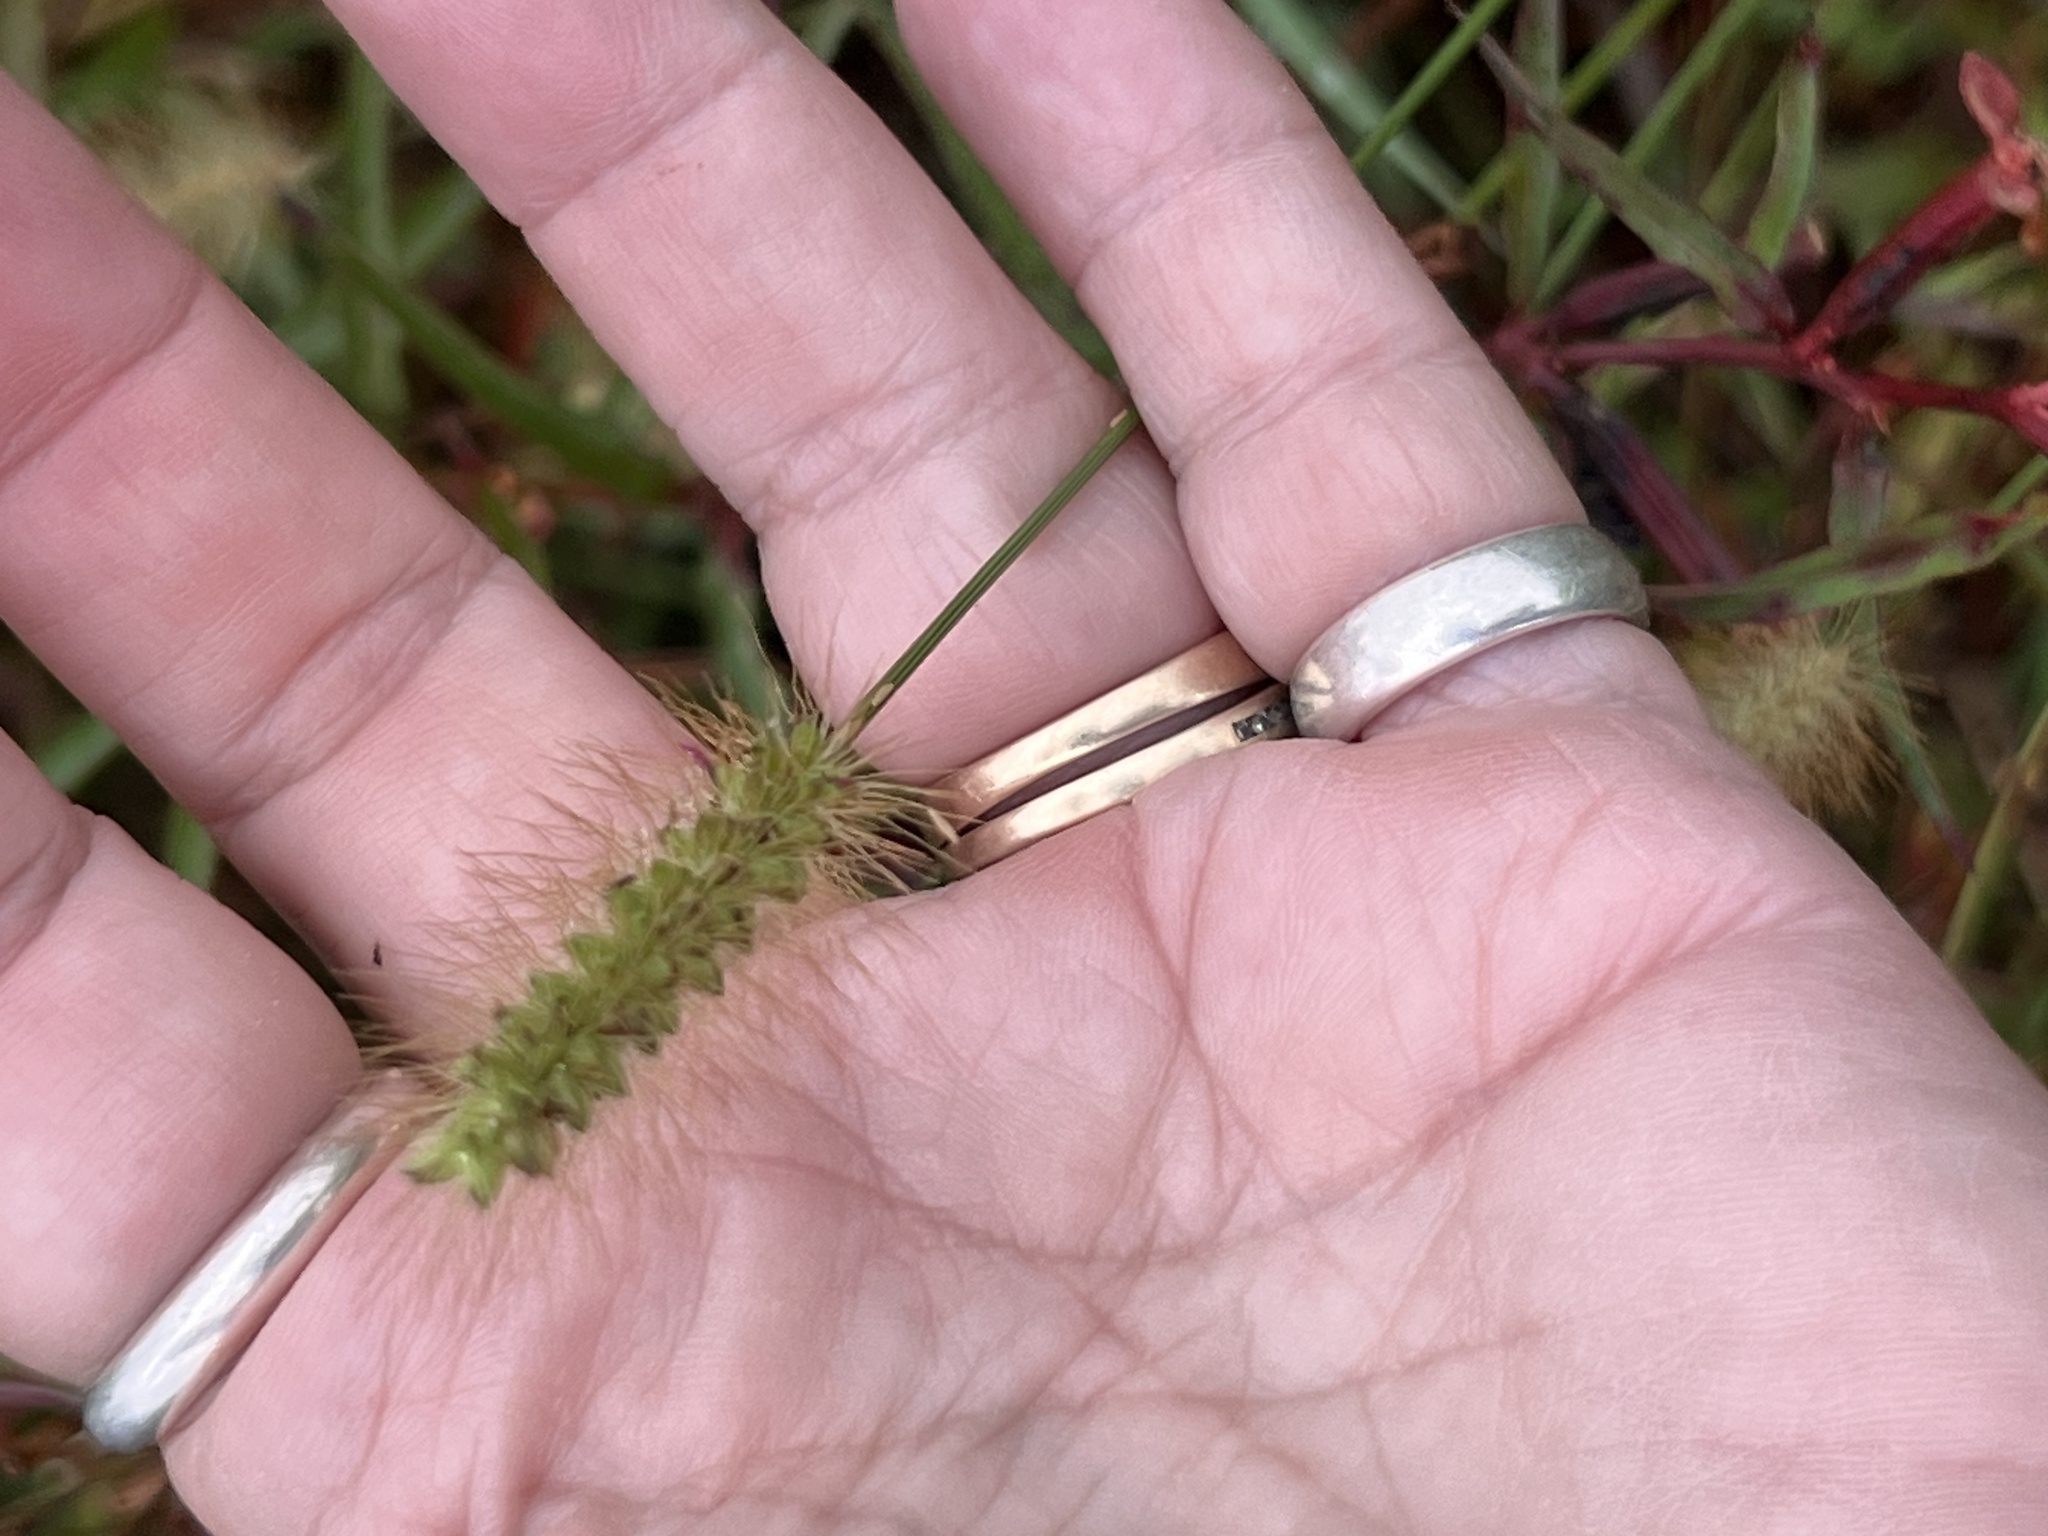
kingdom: Plantae
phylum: Tracheophyta
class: Liliopsida
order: Poales
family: Poaceae
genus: Setaria
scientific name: Setaria parviflora
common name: Knotroot bristle-grass
